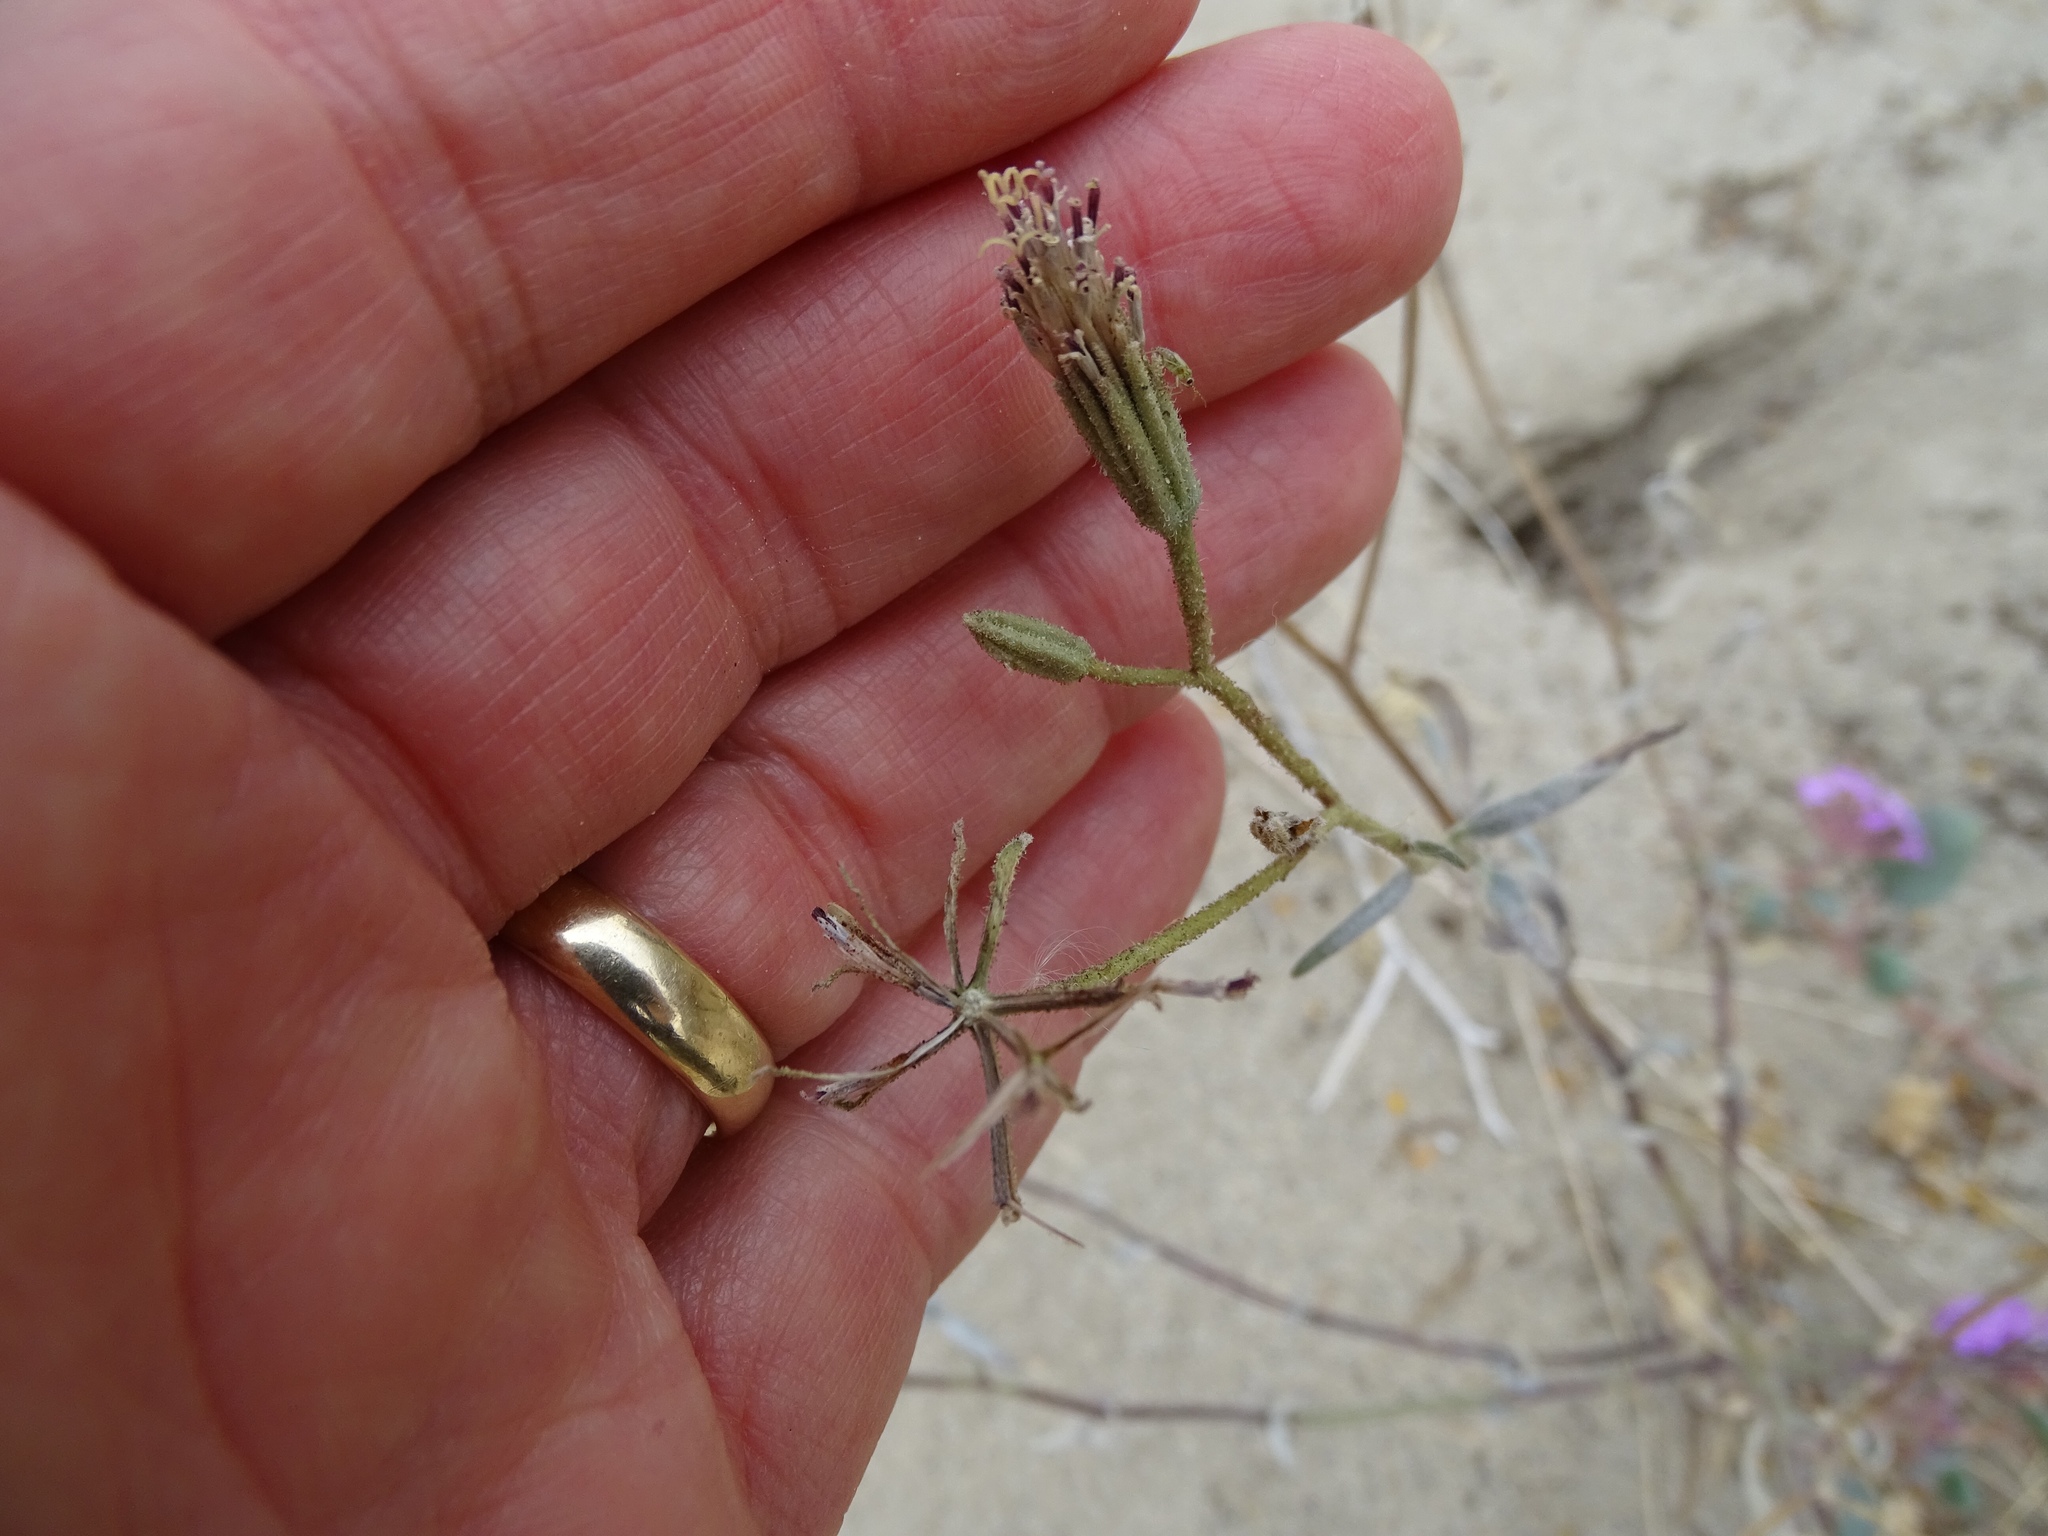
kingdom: Plantae
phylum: Tracheophyta
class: Magnoliopsida
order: Asterales
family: Asteraceae
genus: Palafoxia
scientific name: Palafoxia arida
